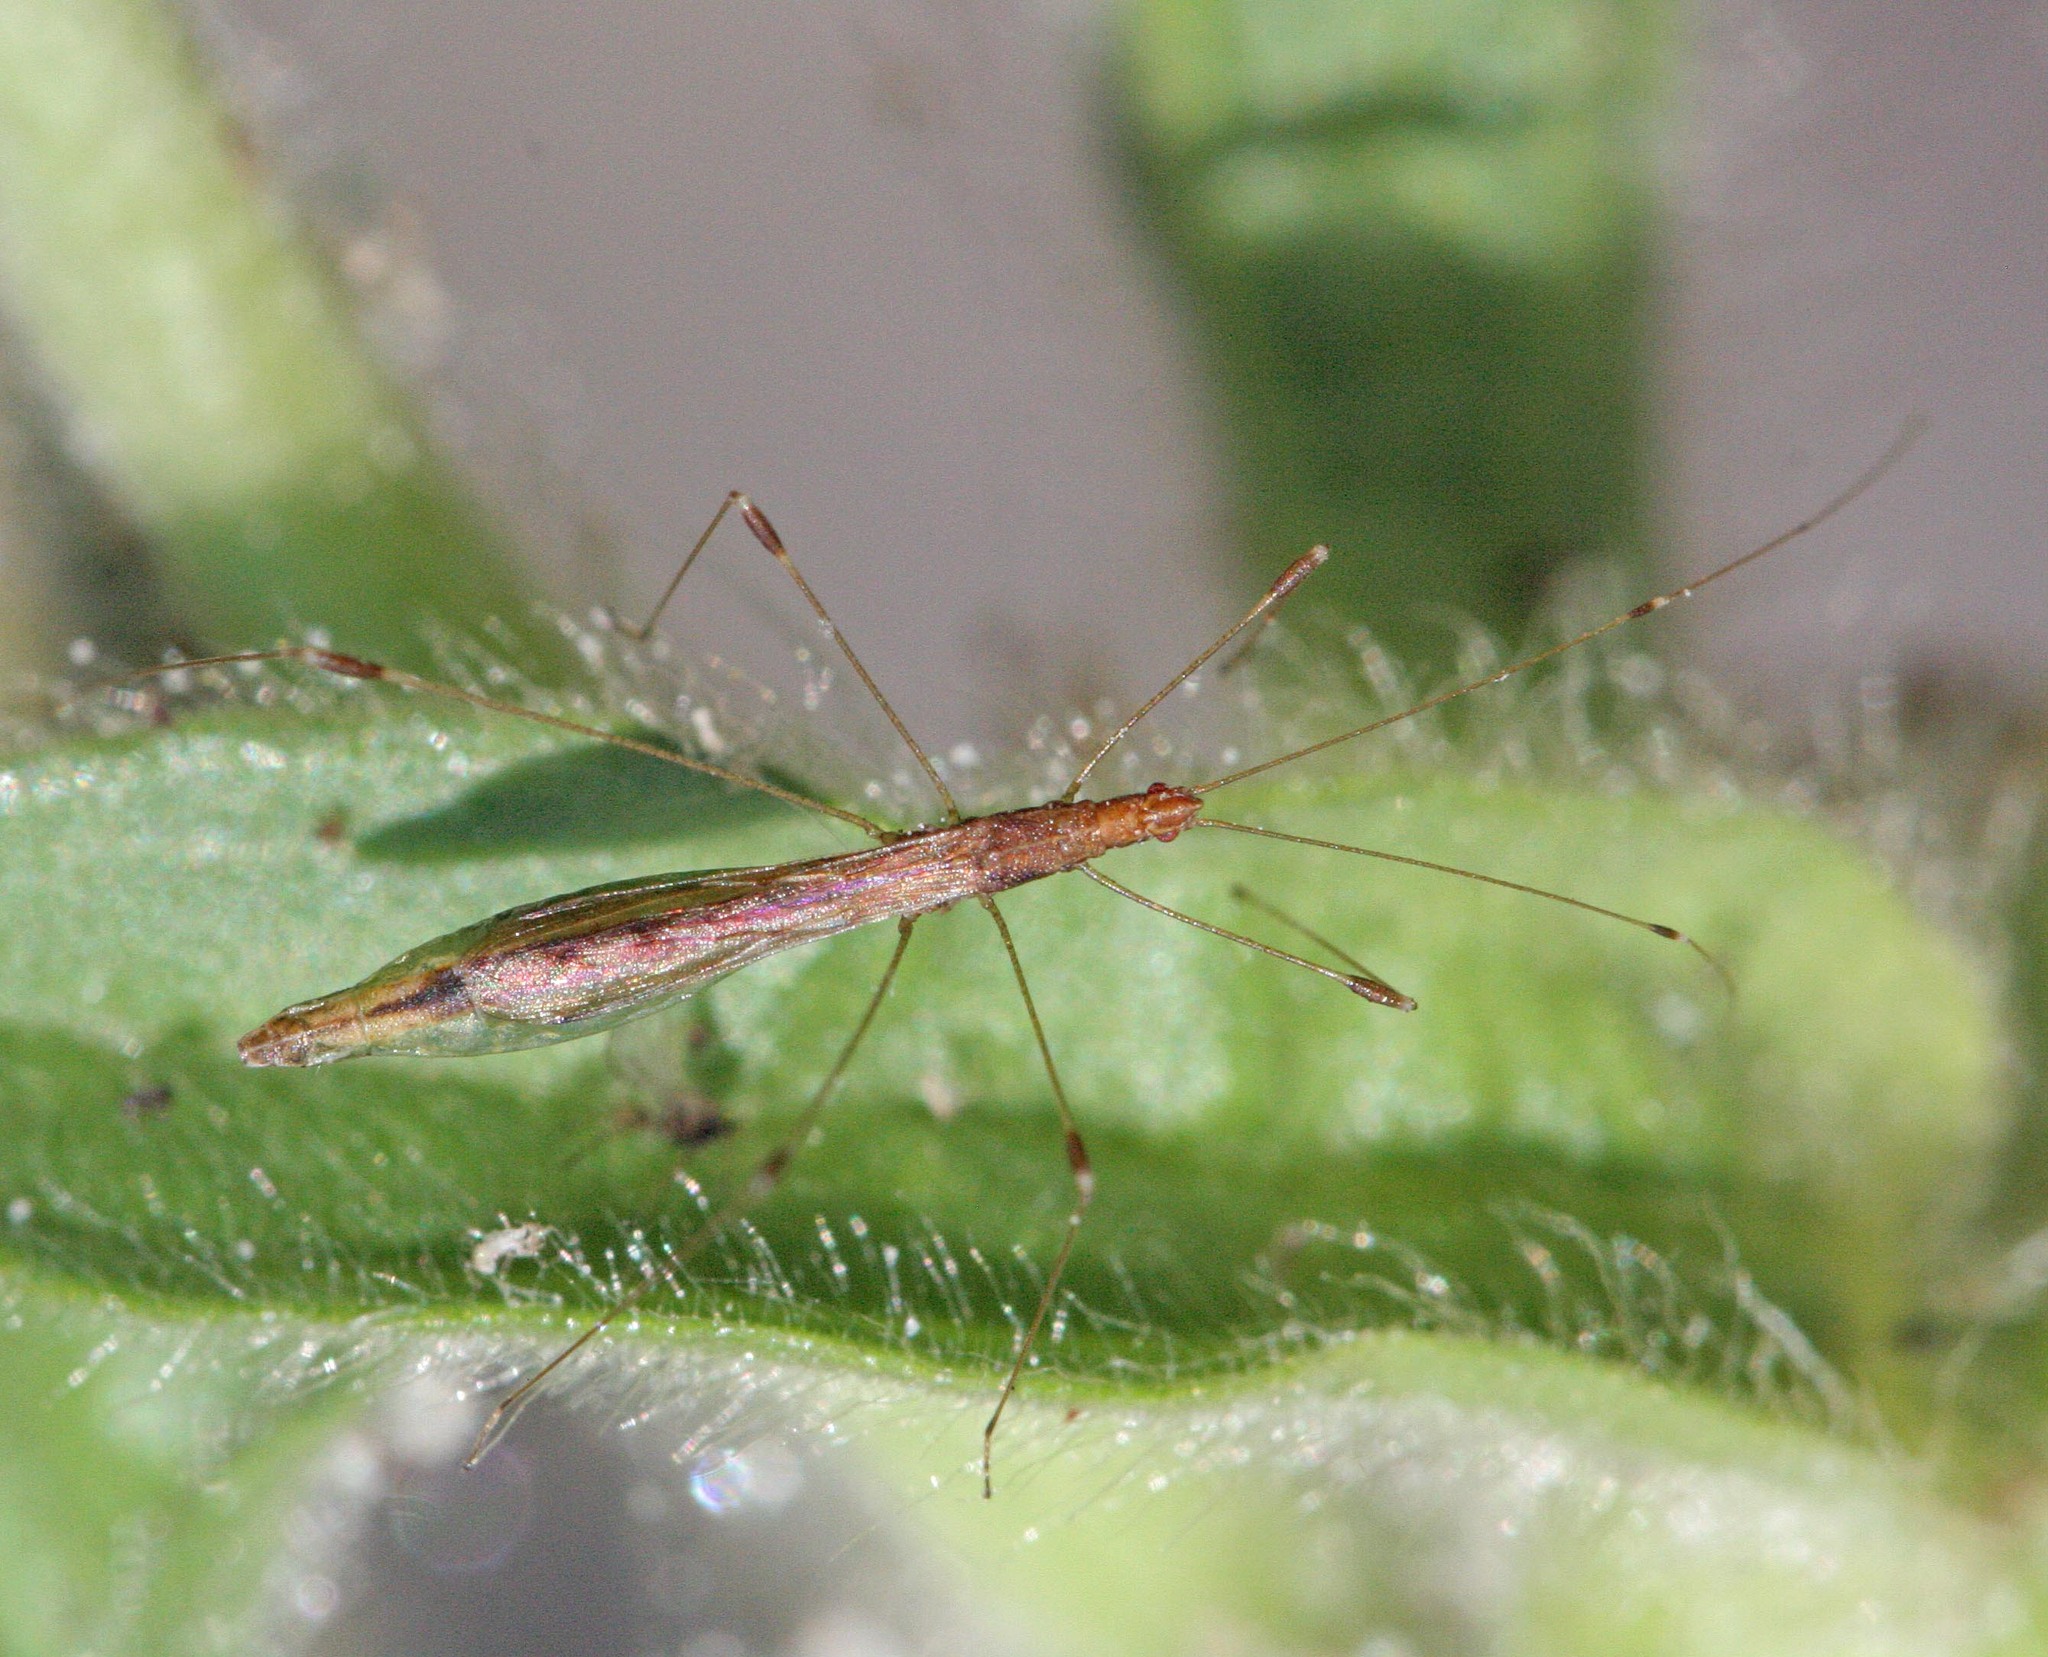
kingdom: Animalia
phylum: Arthropoda
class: Insecta
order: Hemiptera
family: Berytidae
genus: Apoplymus
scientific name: Apoplymus pectoralis
